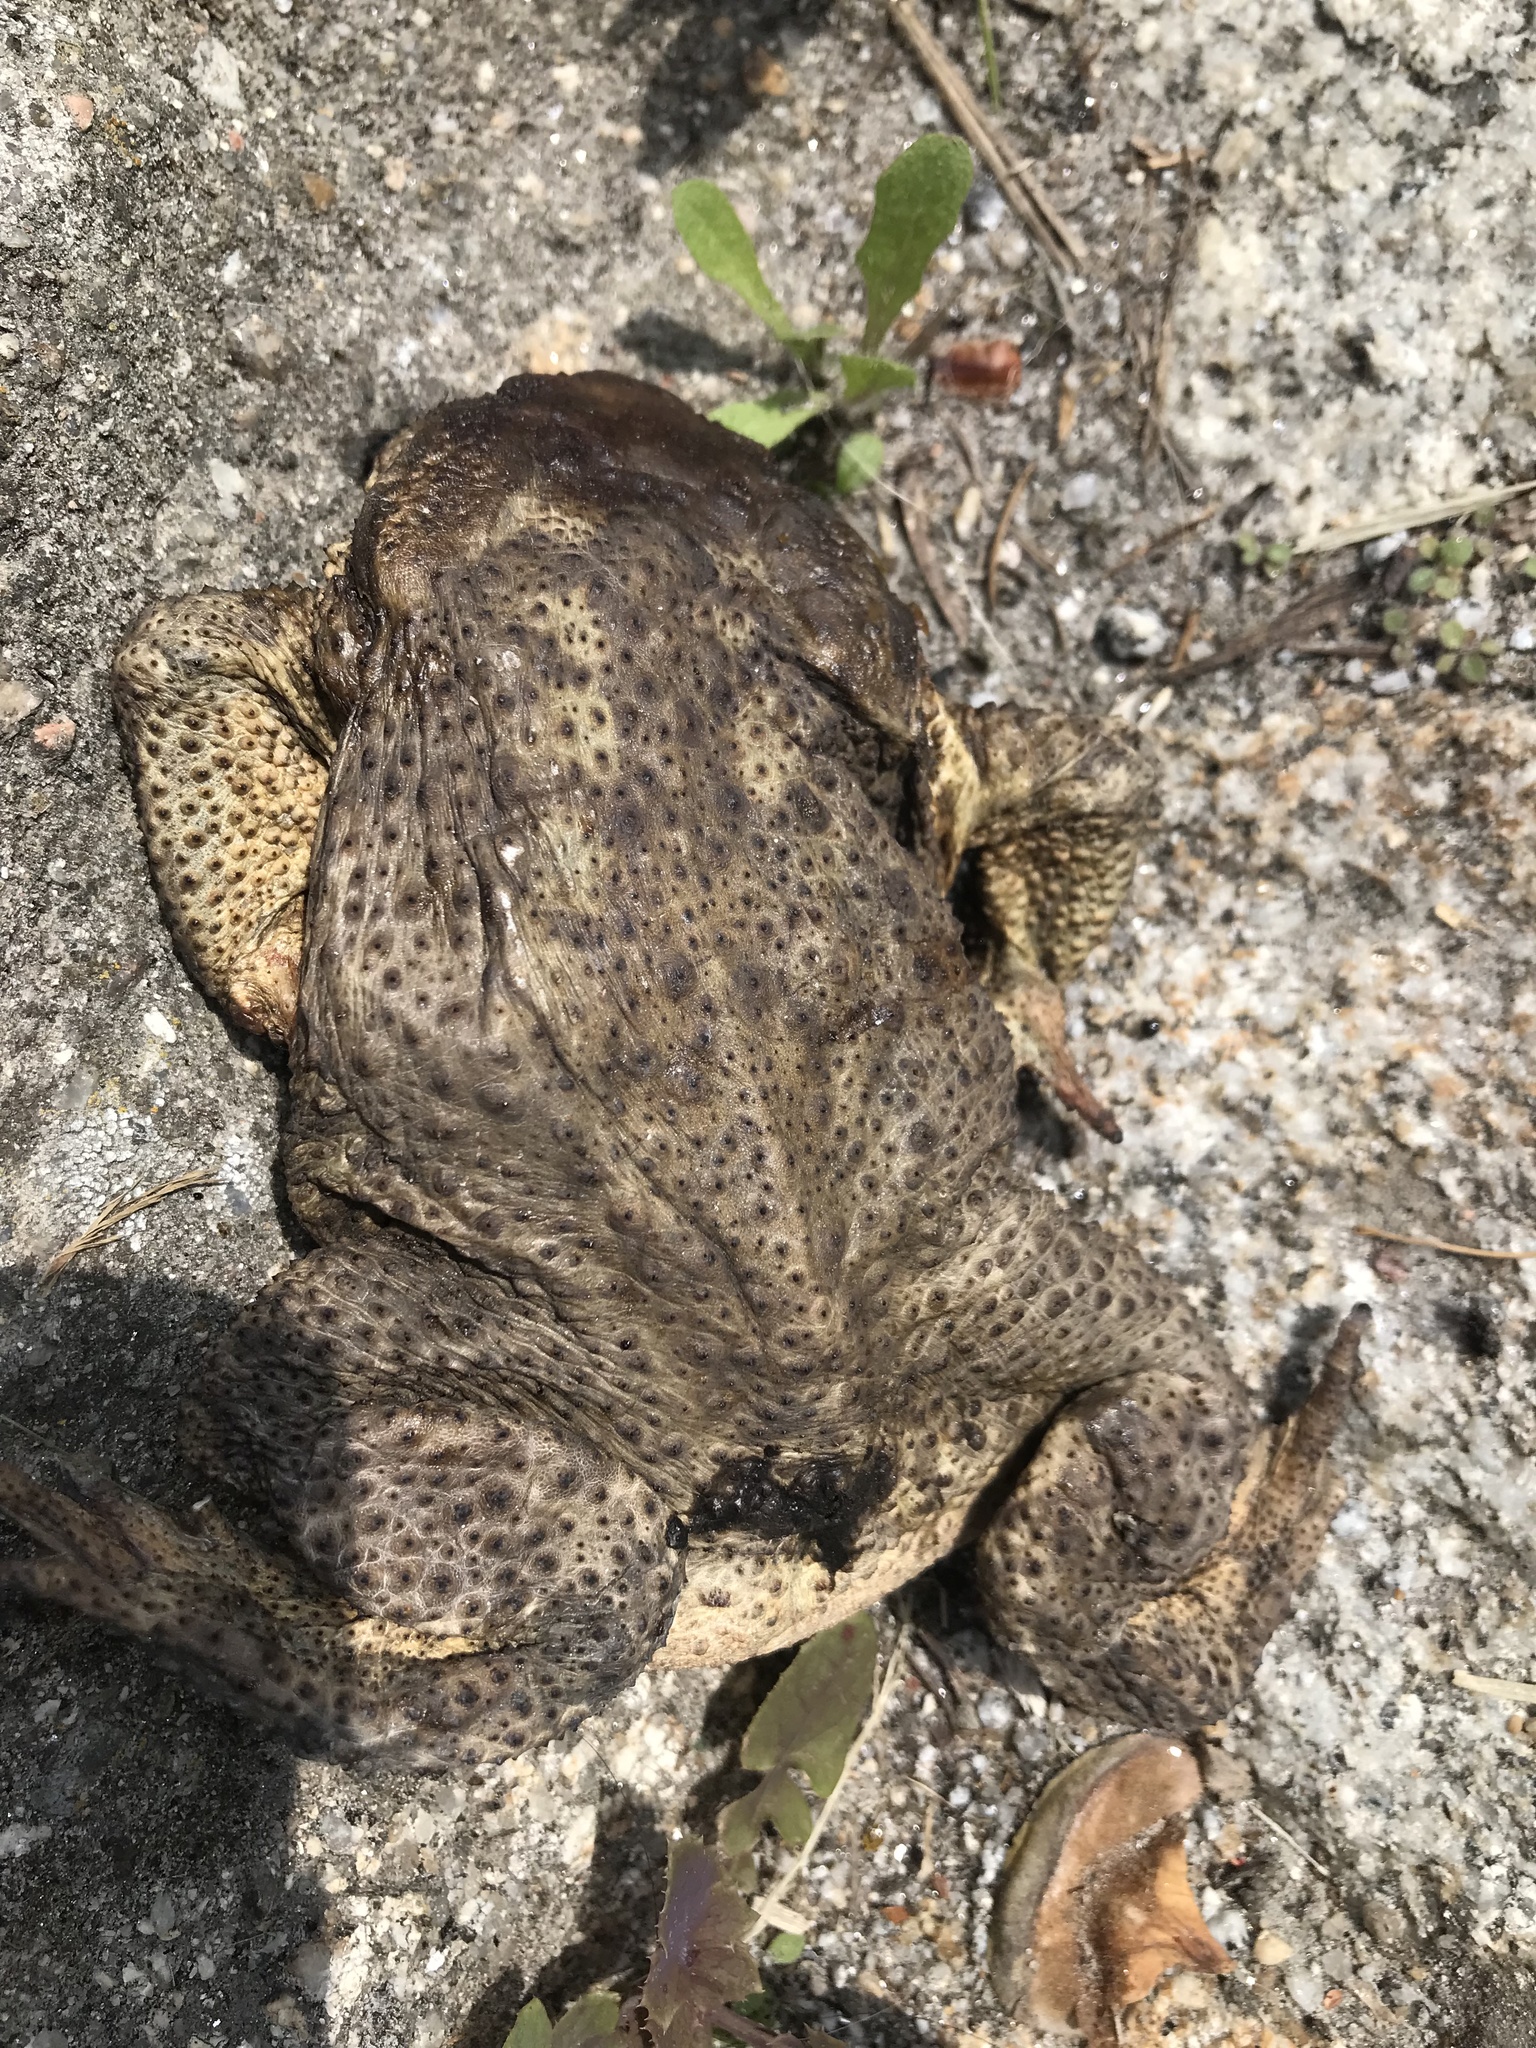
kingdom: Animalia
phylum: Chordata
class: Amphibia
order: Anura
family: Bufonidae
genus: Bufo
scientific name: Bufo spinosus
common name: Western common toad
